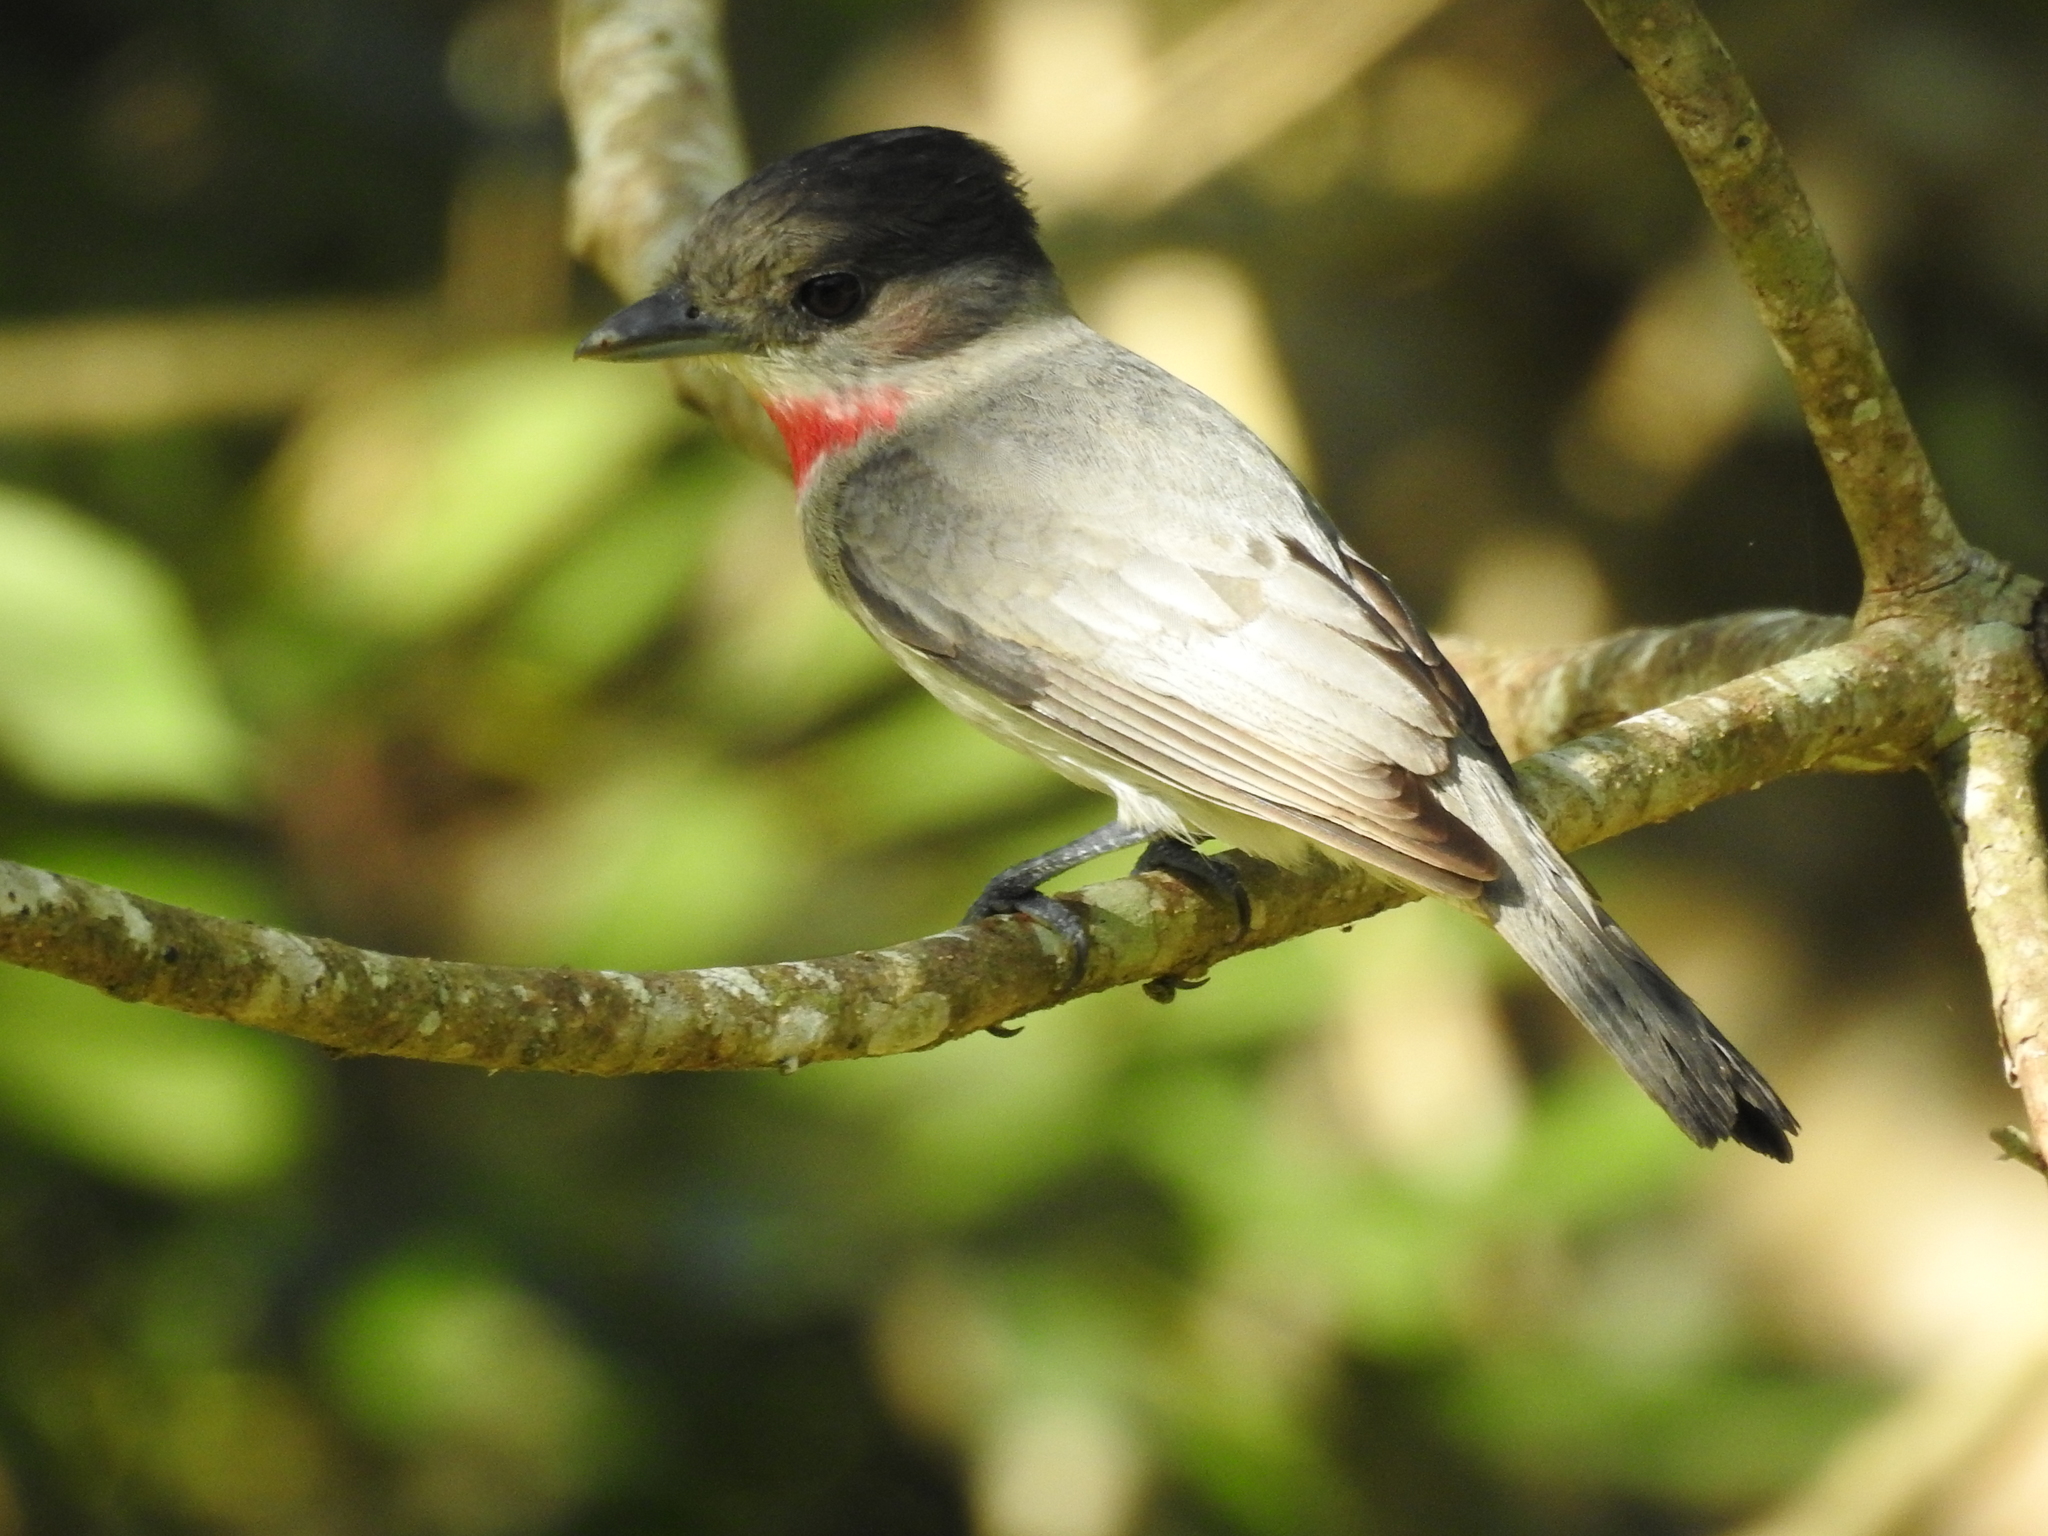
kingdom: Animalia
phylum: Chordata
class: Aves
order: Passeriformes
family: Cotingidae
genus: Pachyramphus
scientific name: Pachyramphus aglaiae
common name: Rose-throated becard
